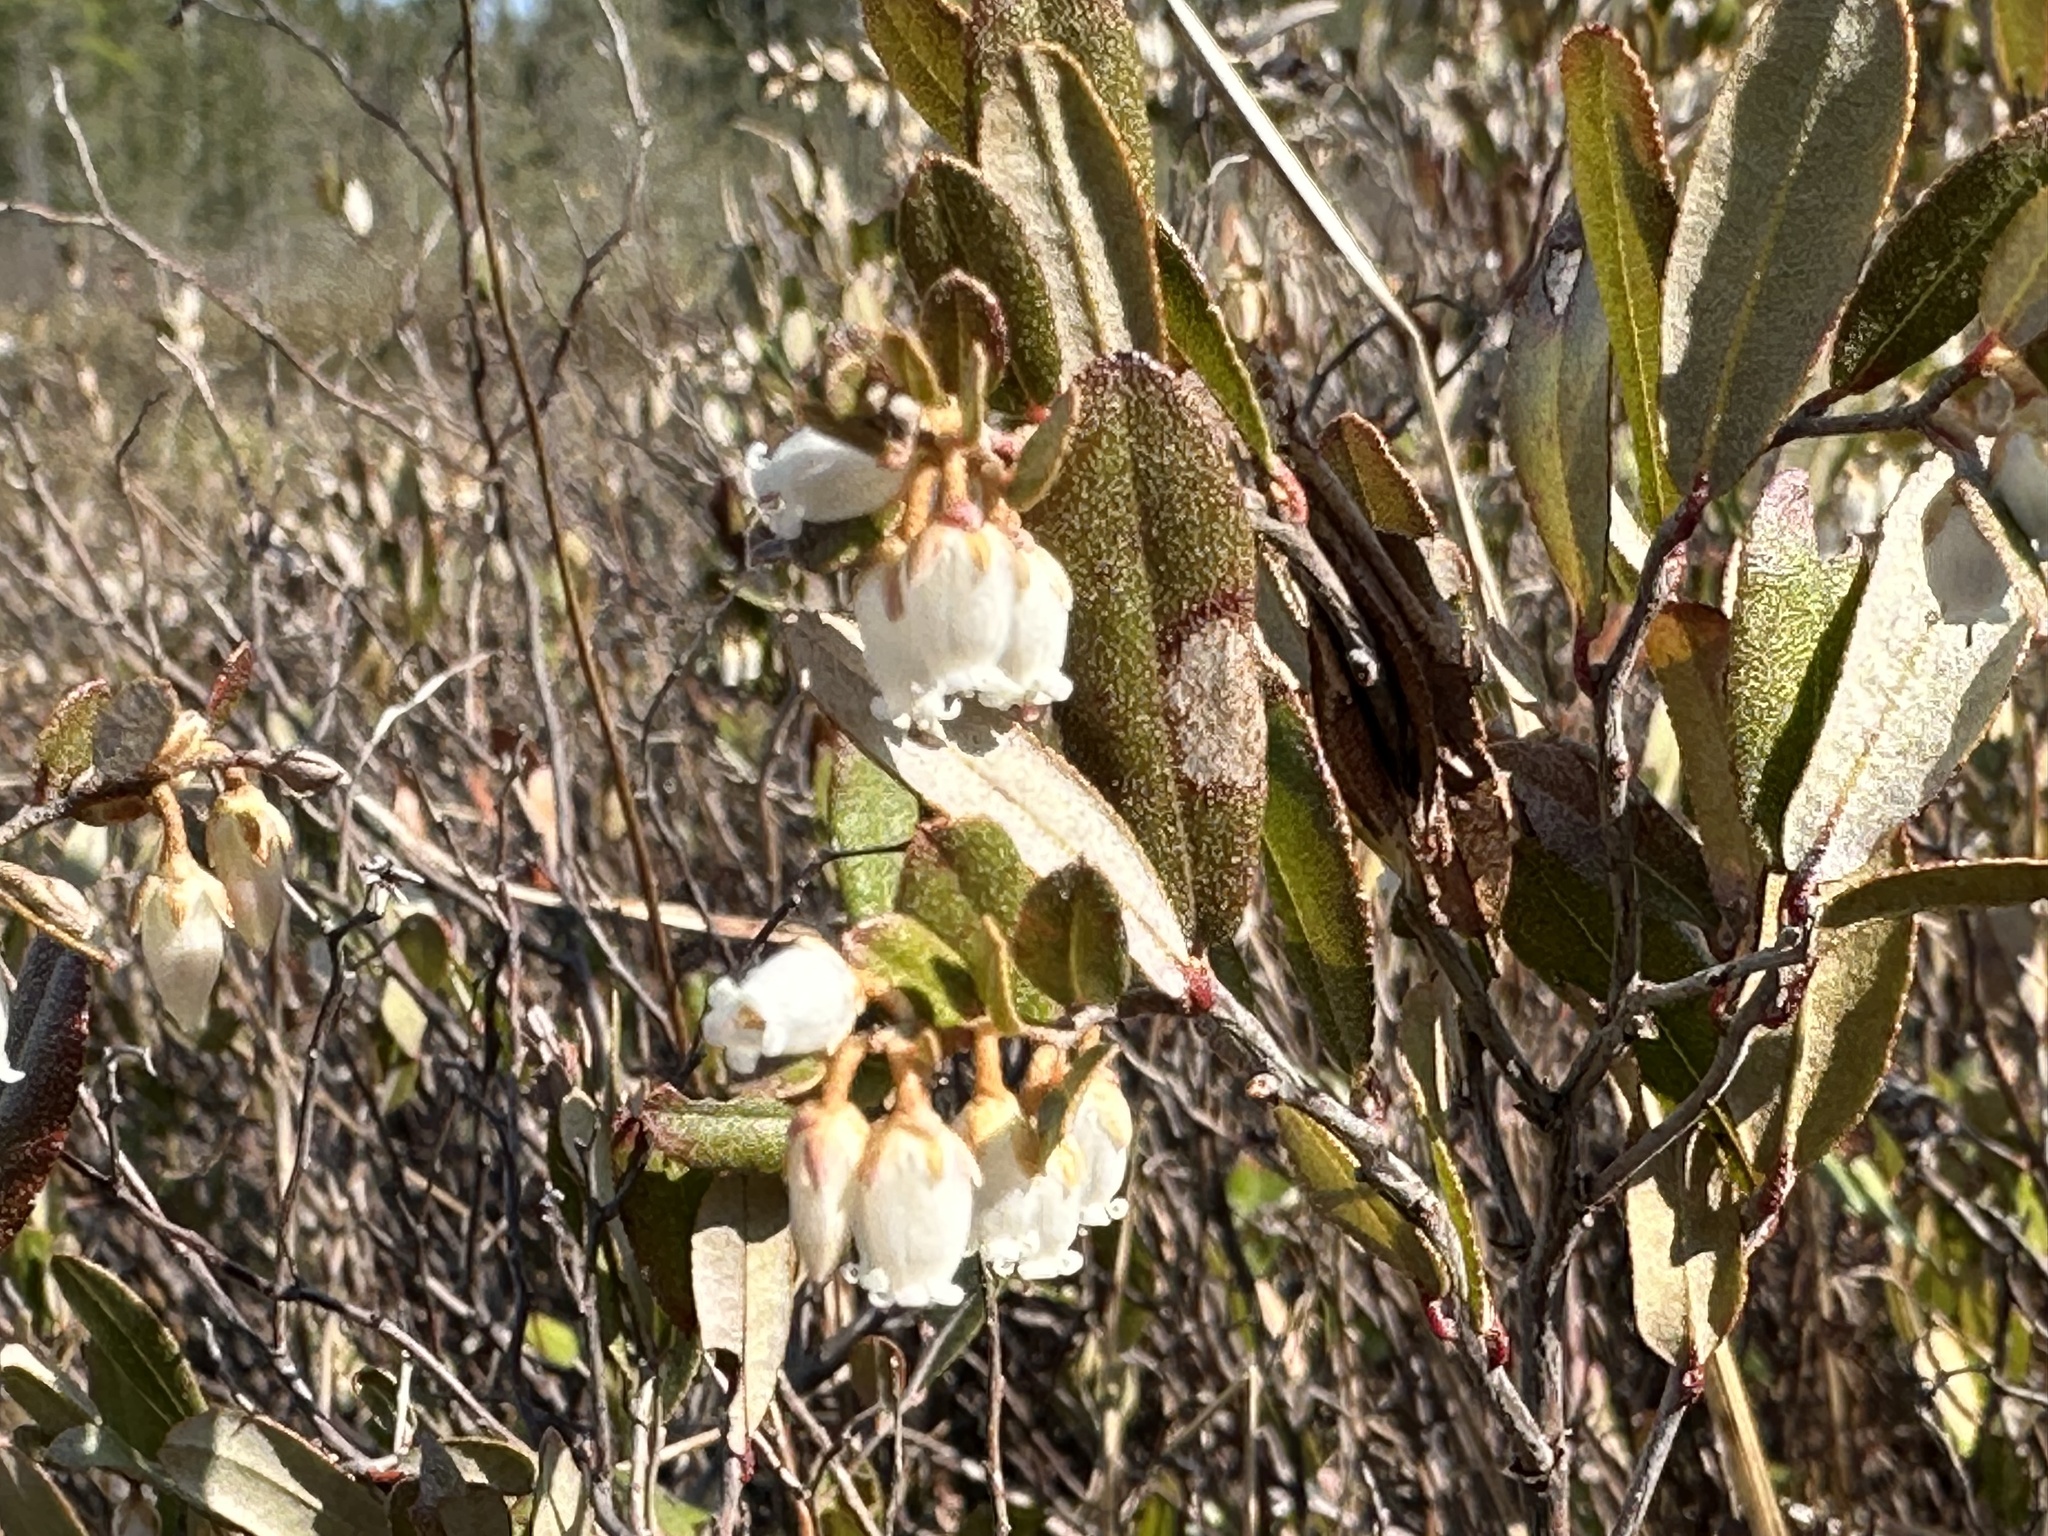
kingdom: Plantae
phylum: Tracheophyta
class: Magnoliopsida
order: Ericales
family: Ericaceae
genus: Chamaedaphne
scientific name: Chamaedaphne calyculata
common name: Leatherleaf
